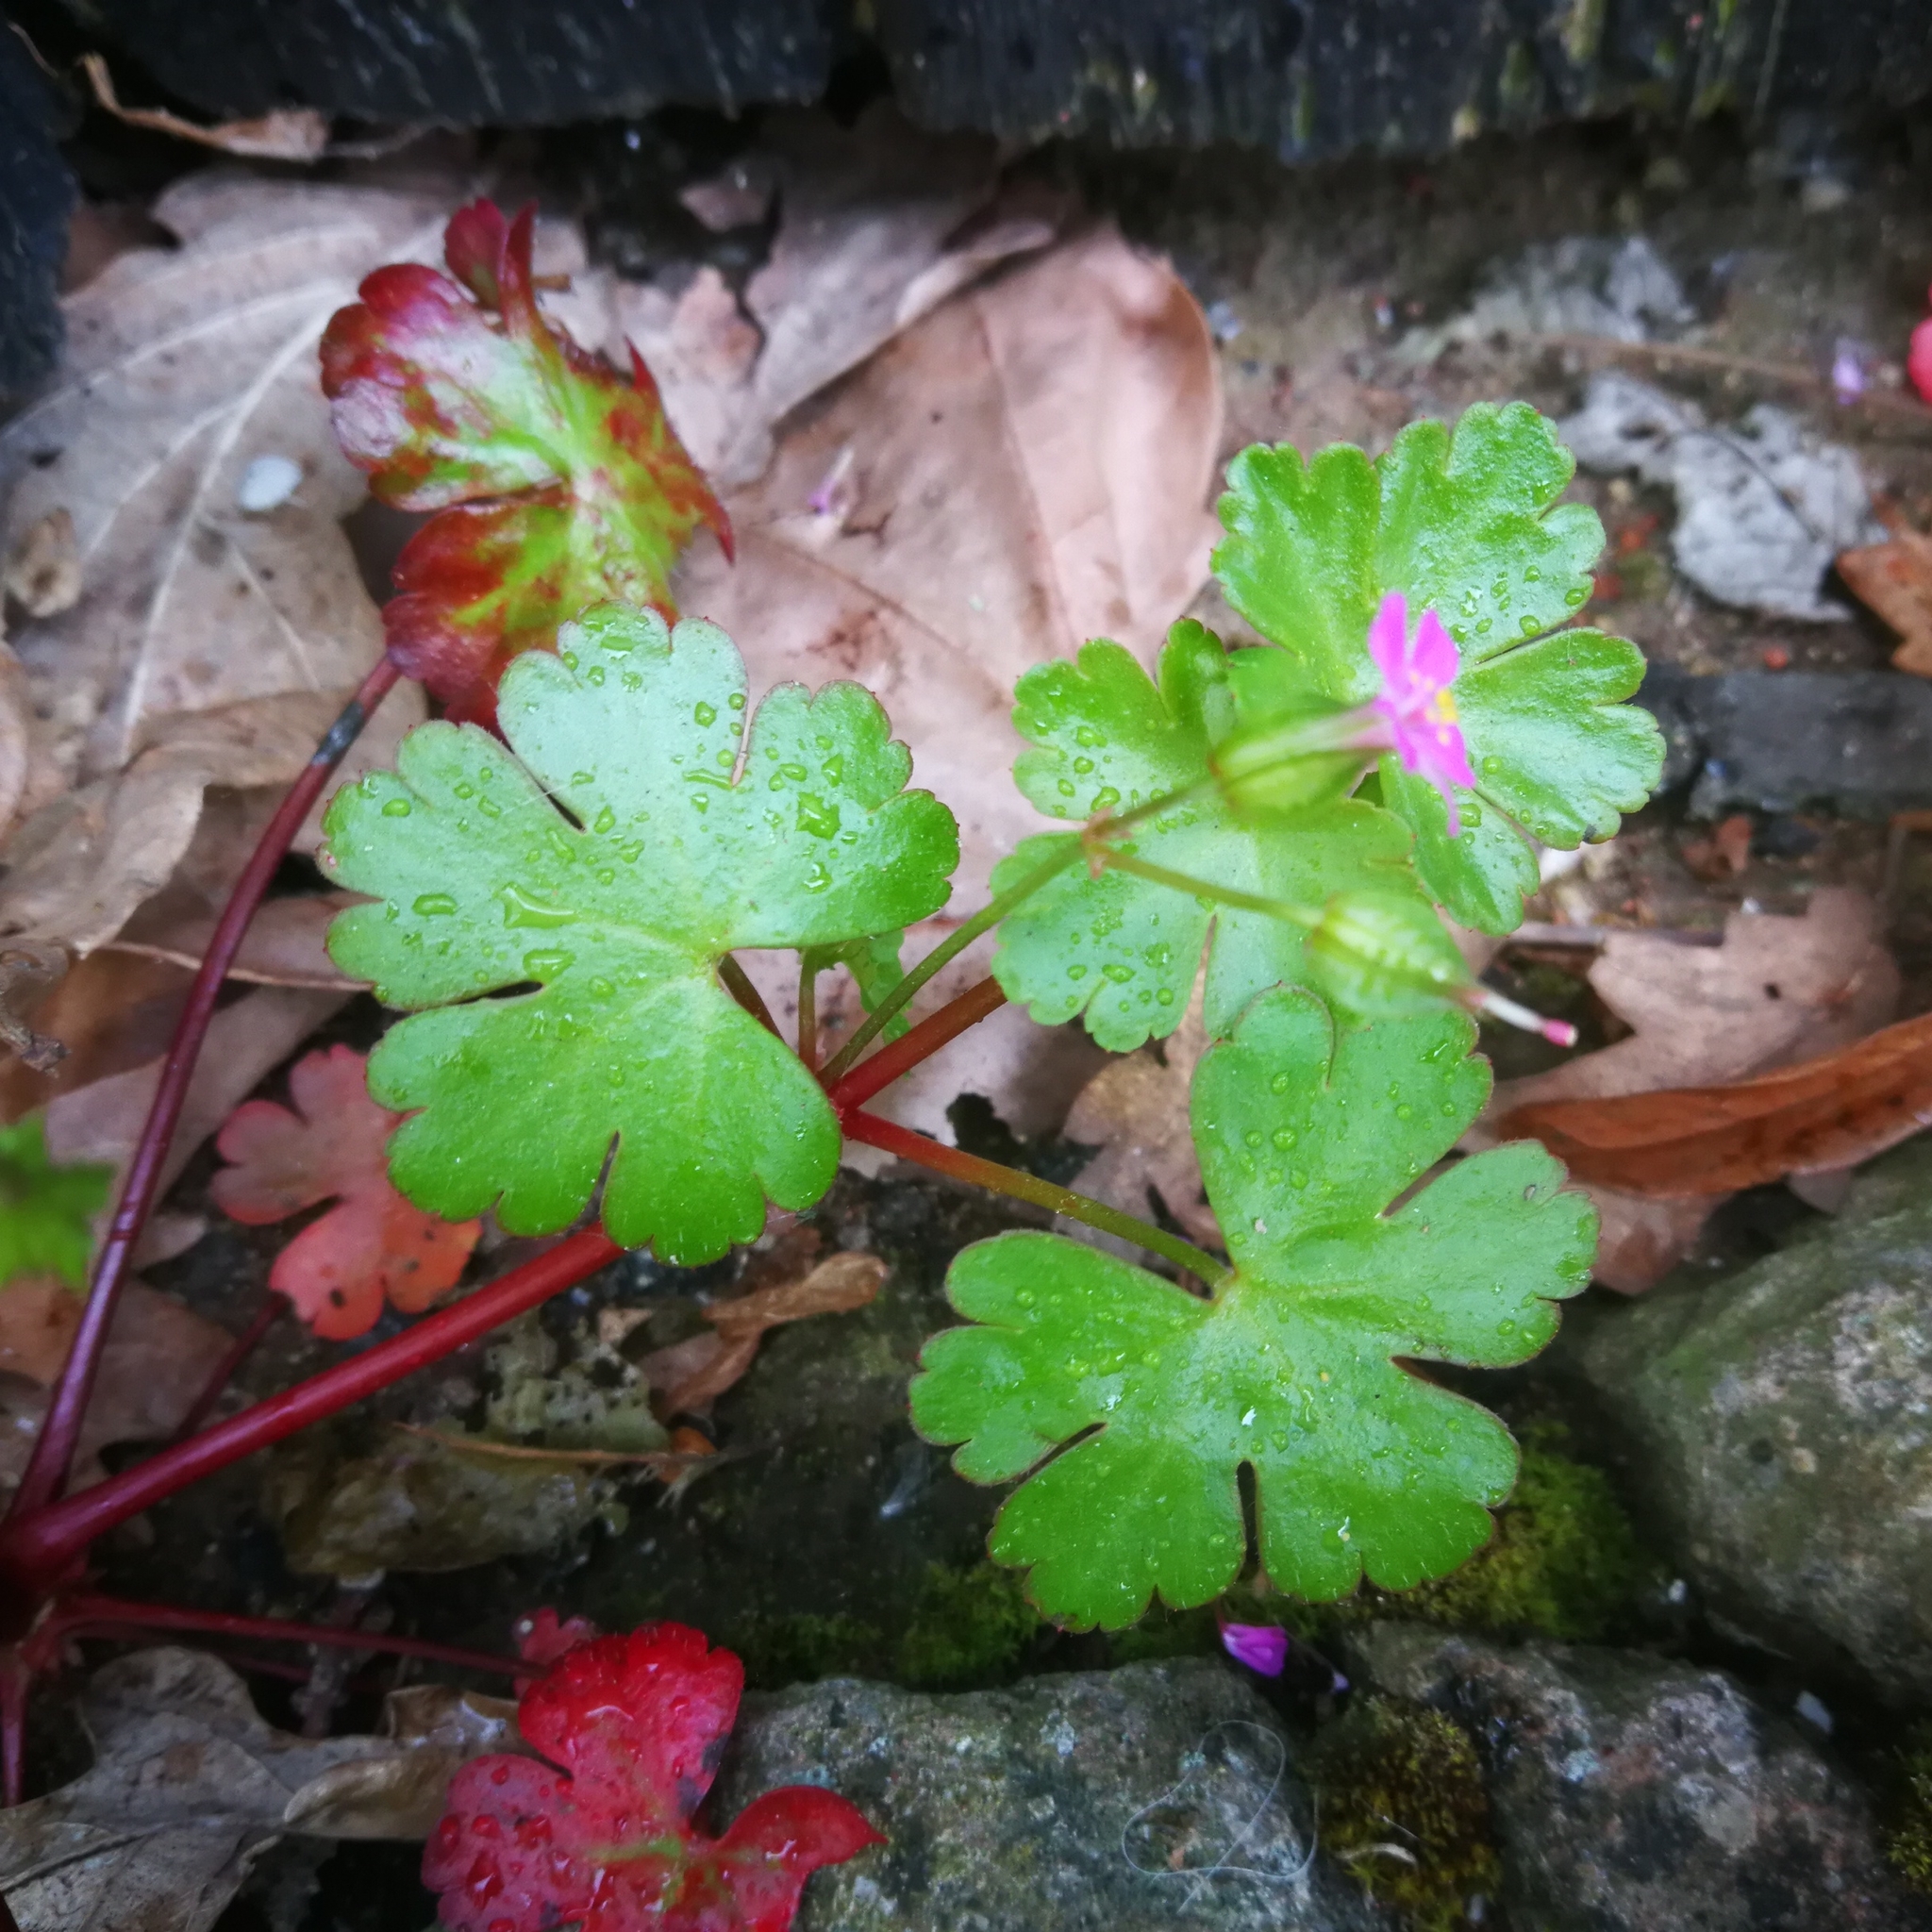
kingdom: Plantae
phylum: Tracheophyta
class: Magnoliopsida
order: Geraniales
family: Geraniaceae
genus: Geranium
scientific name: Geranium lucidum
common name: Shining crane's-bill
